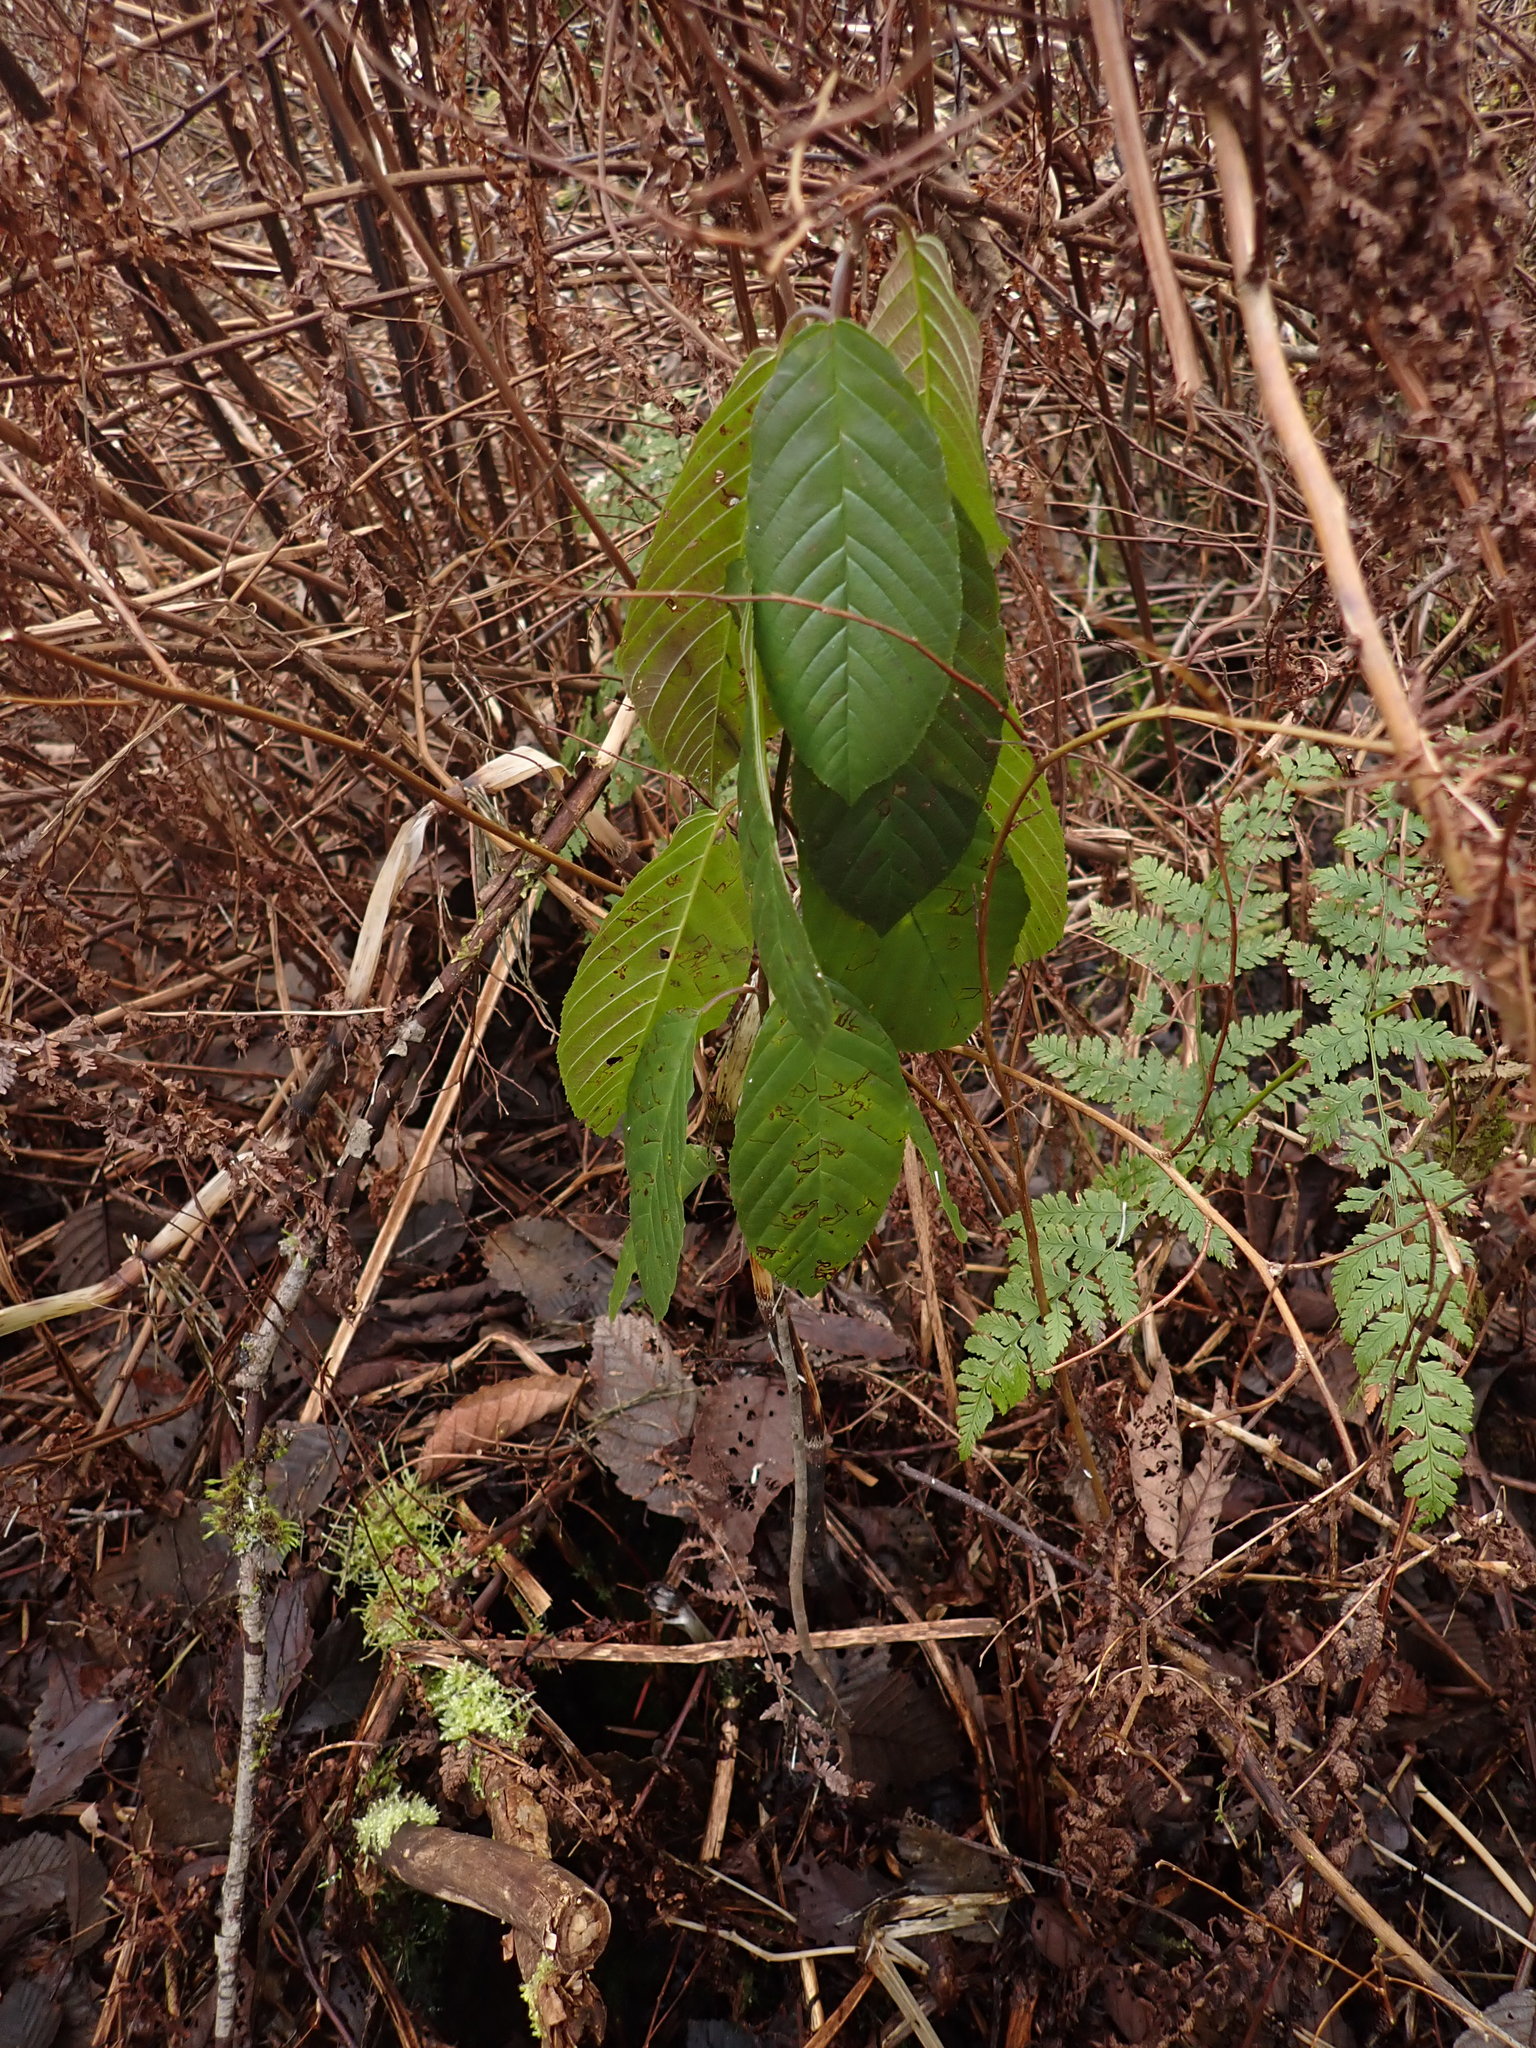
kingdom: Plantae
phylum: Tracheophyta
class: Magnoliopsida
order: Rosales
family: Rhamnaceae
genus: Frangula
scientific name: Frangula purshiana
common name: Cascara buckthorn
